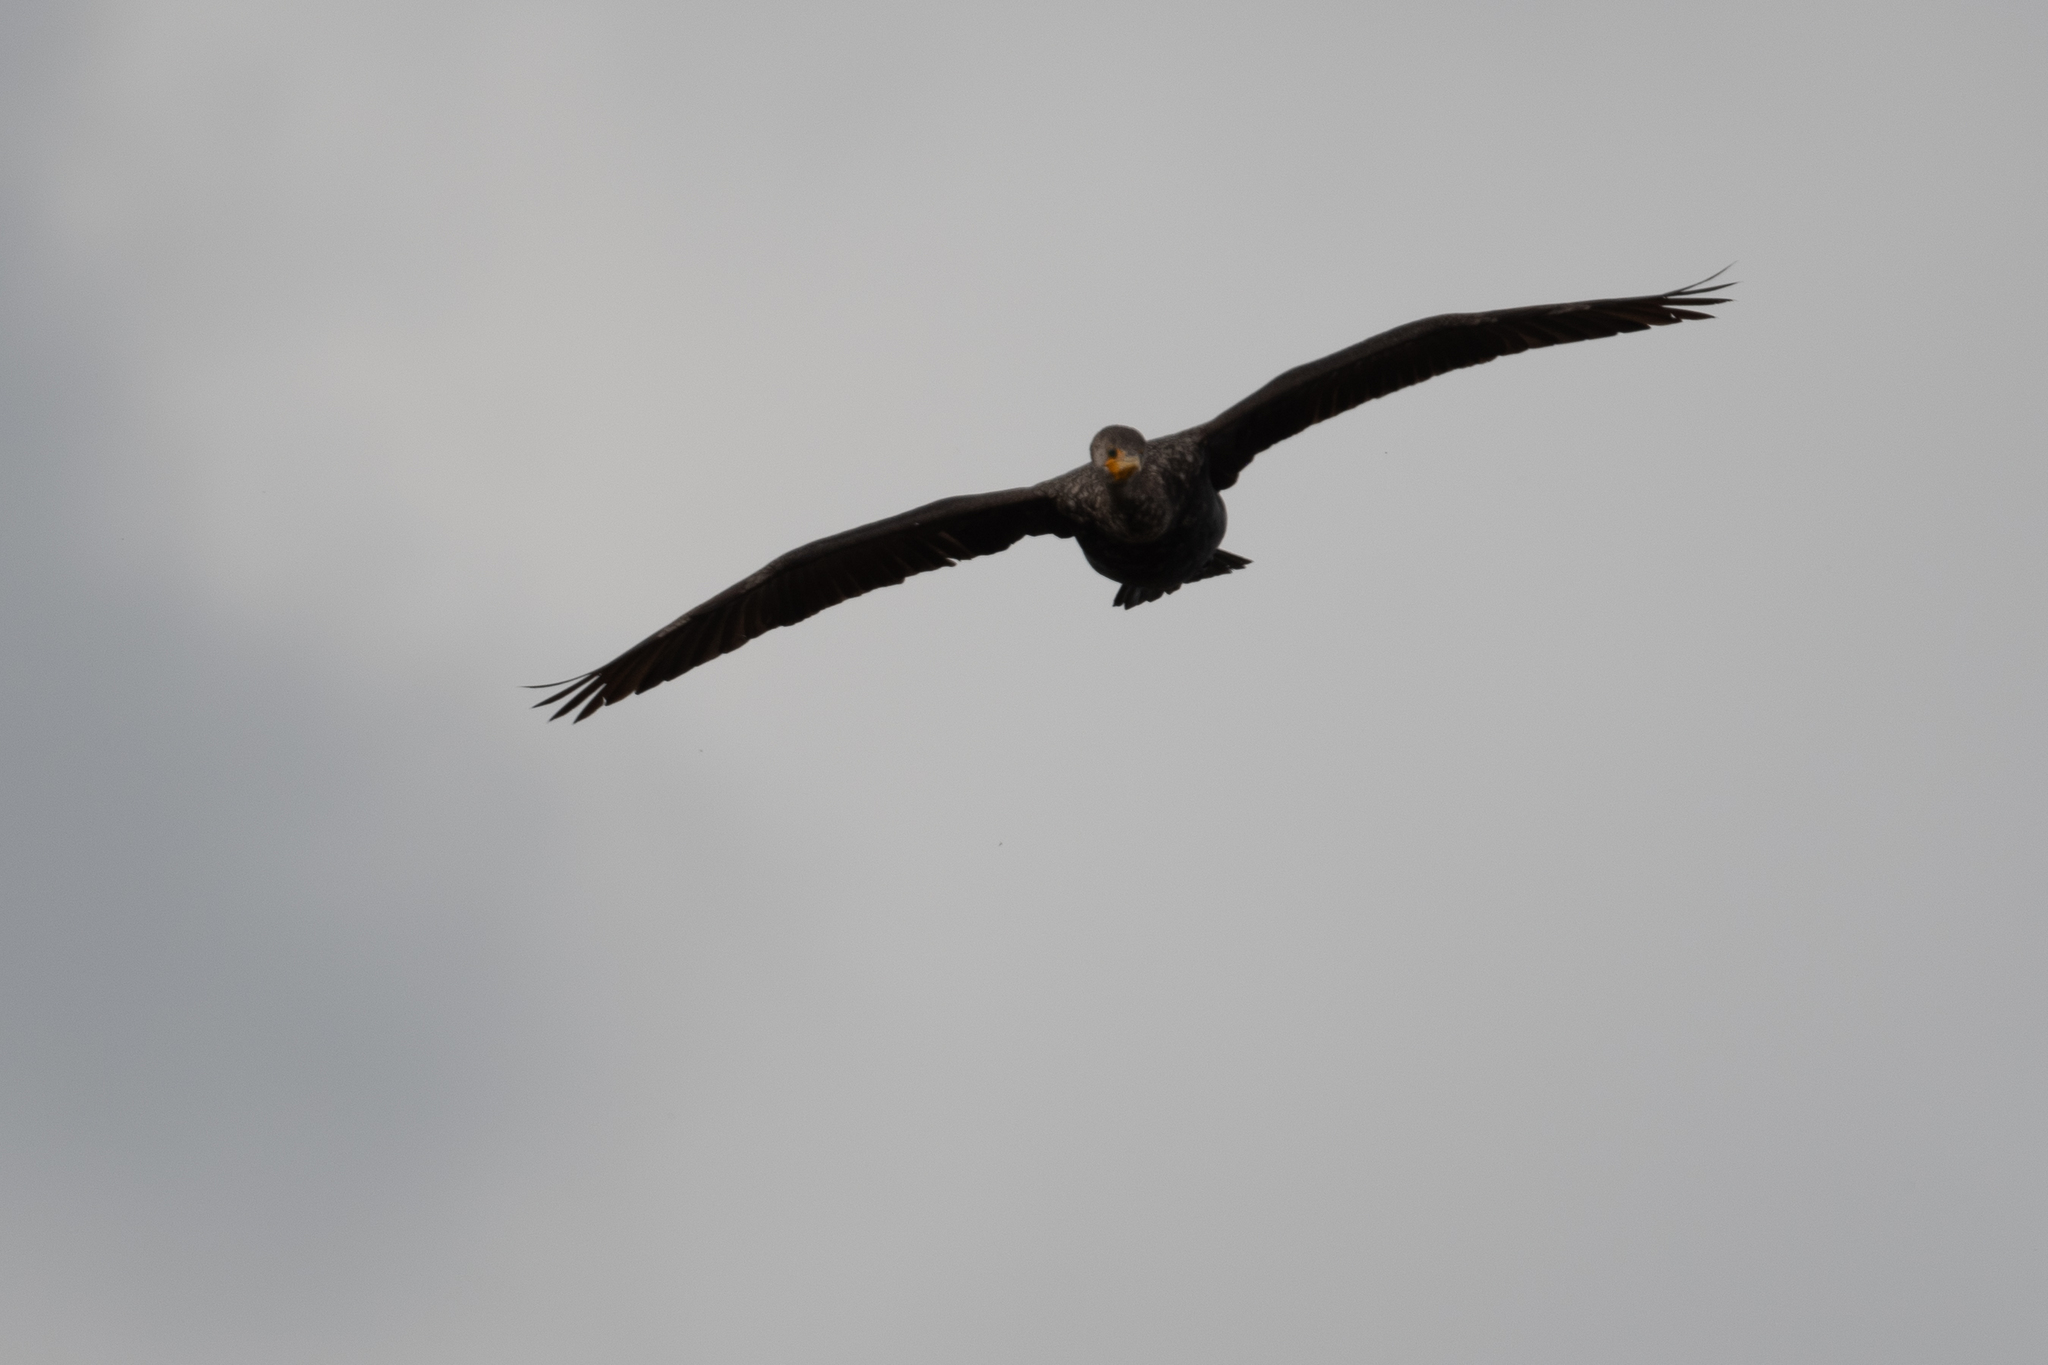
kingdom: Animalia
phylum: Chordata
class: Aves
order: Suliformes
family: Phalacrocoracidae
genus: Phalacrocorax
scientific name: Phalacrocorax auritus
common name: Double-crested cormorant
